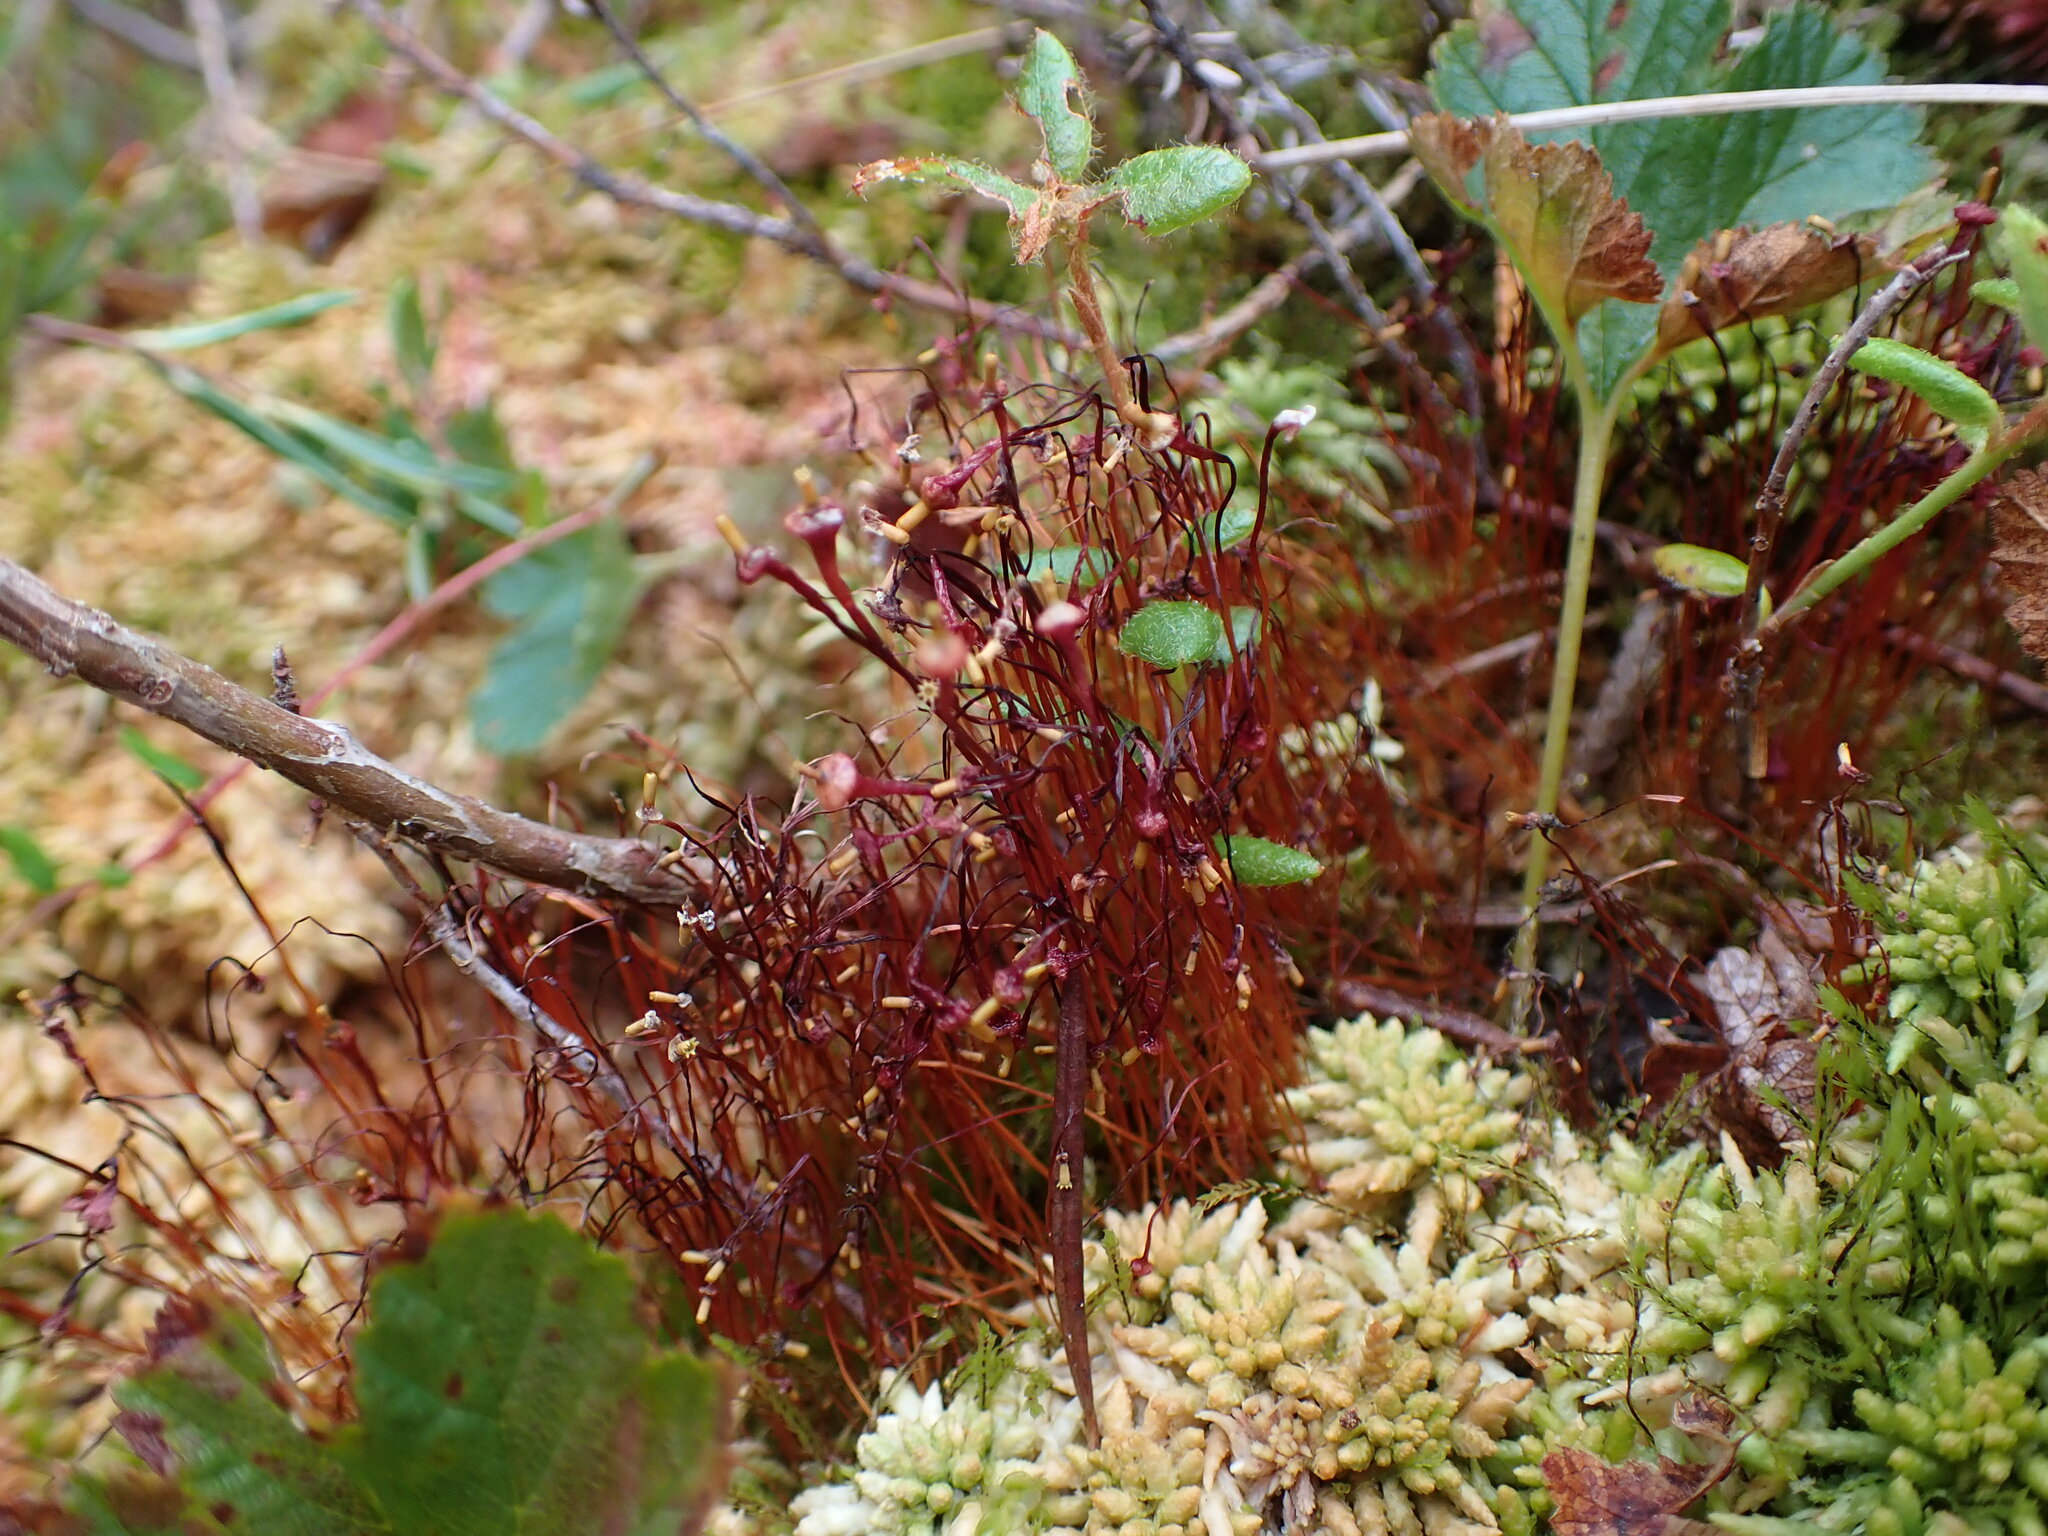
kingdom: Plantae
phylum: Bryophyta
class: Bryopsida
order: Splachnales
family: Splachnaceae
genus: Splachnum
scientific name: Splachnum ampullaceum
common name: Cruet dung moss
